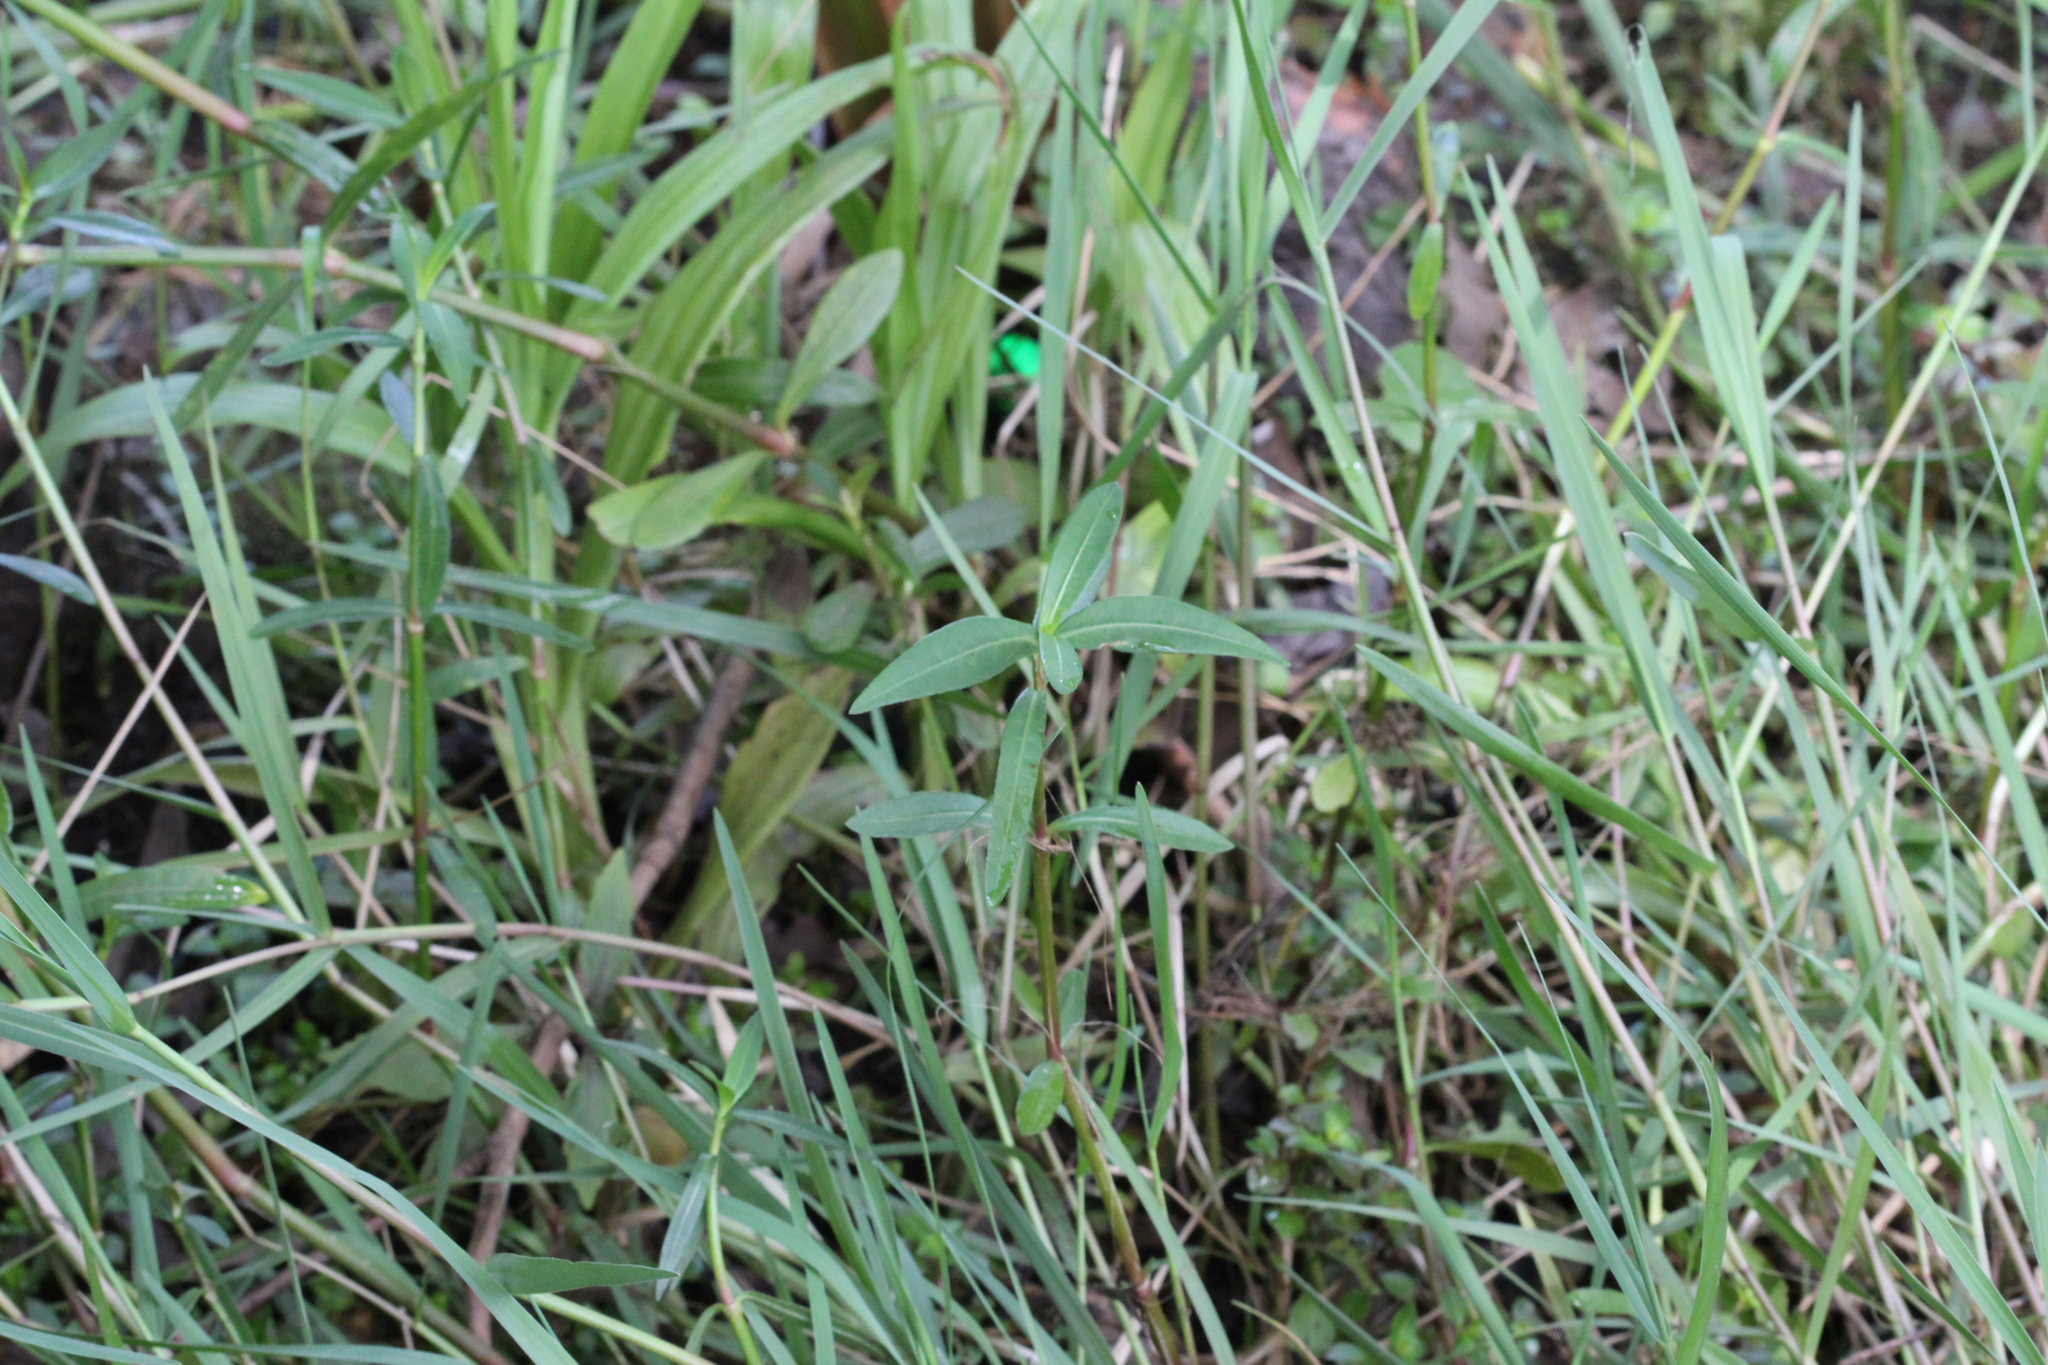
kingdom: Plantae
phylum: Tracheophyta
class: Magnoliopsida
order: Caryophyllales
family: Amaranthaceae
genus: Alternanthera
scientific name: Alternanthera philoxeroides
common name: Alligatorweed
